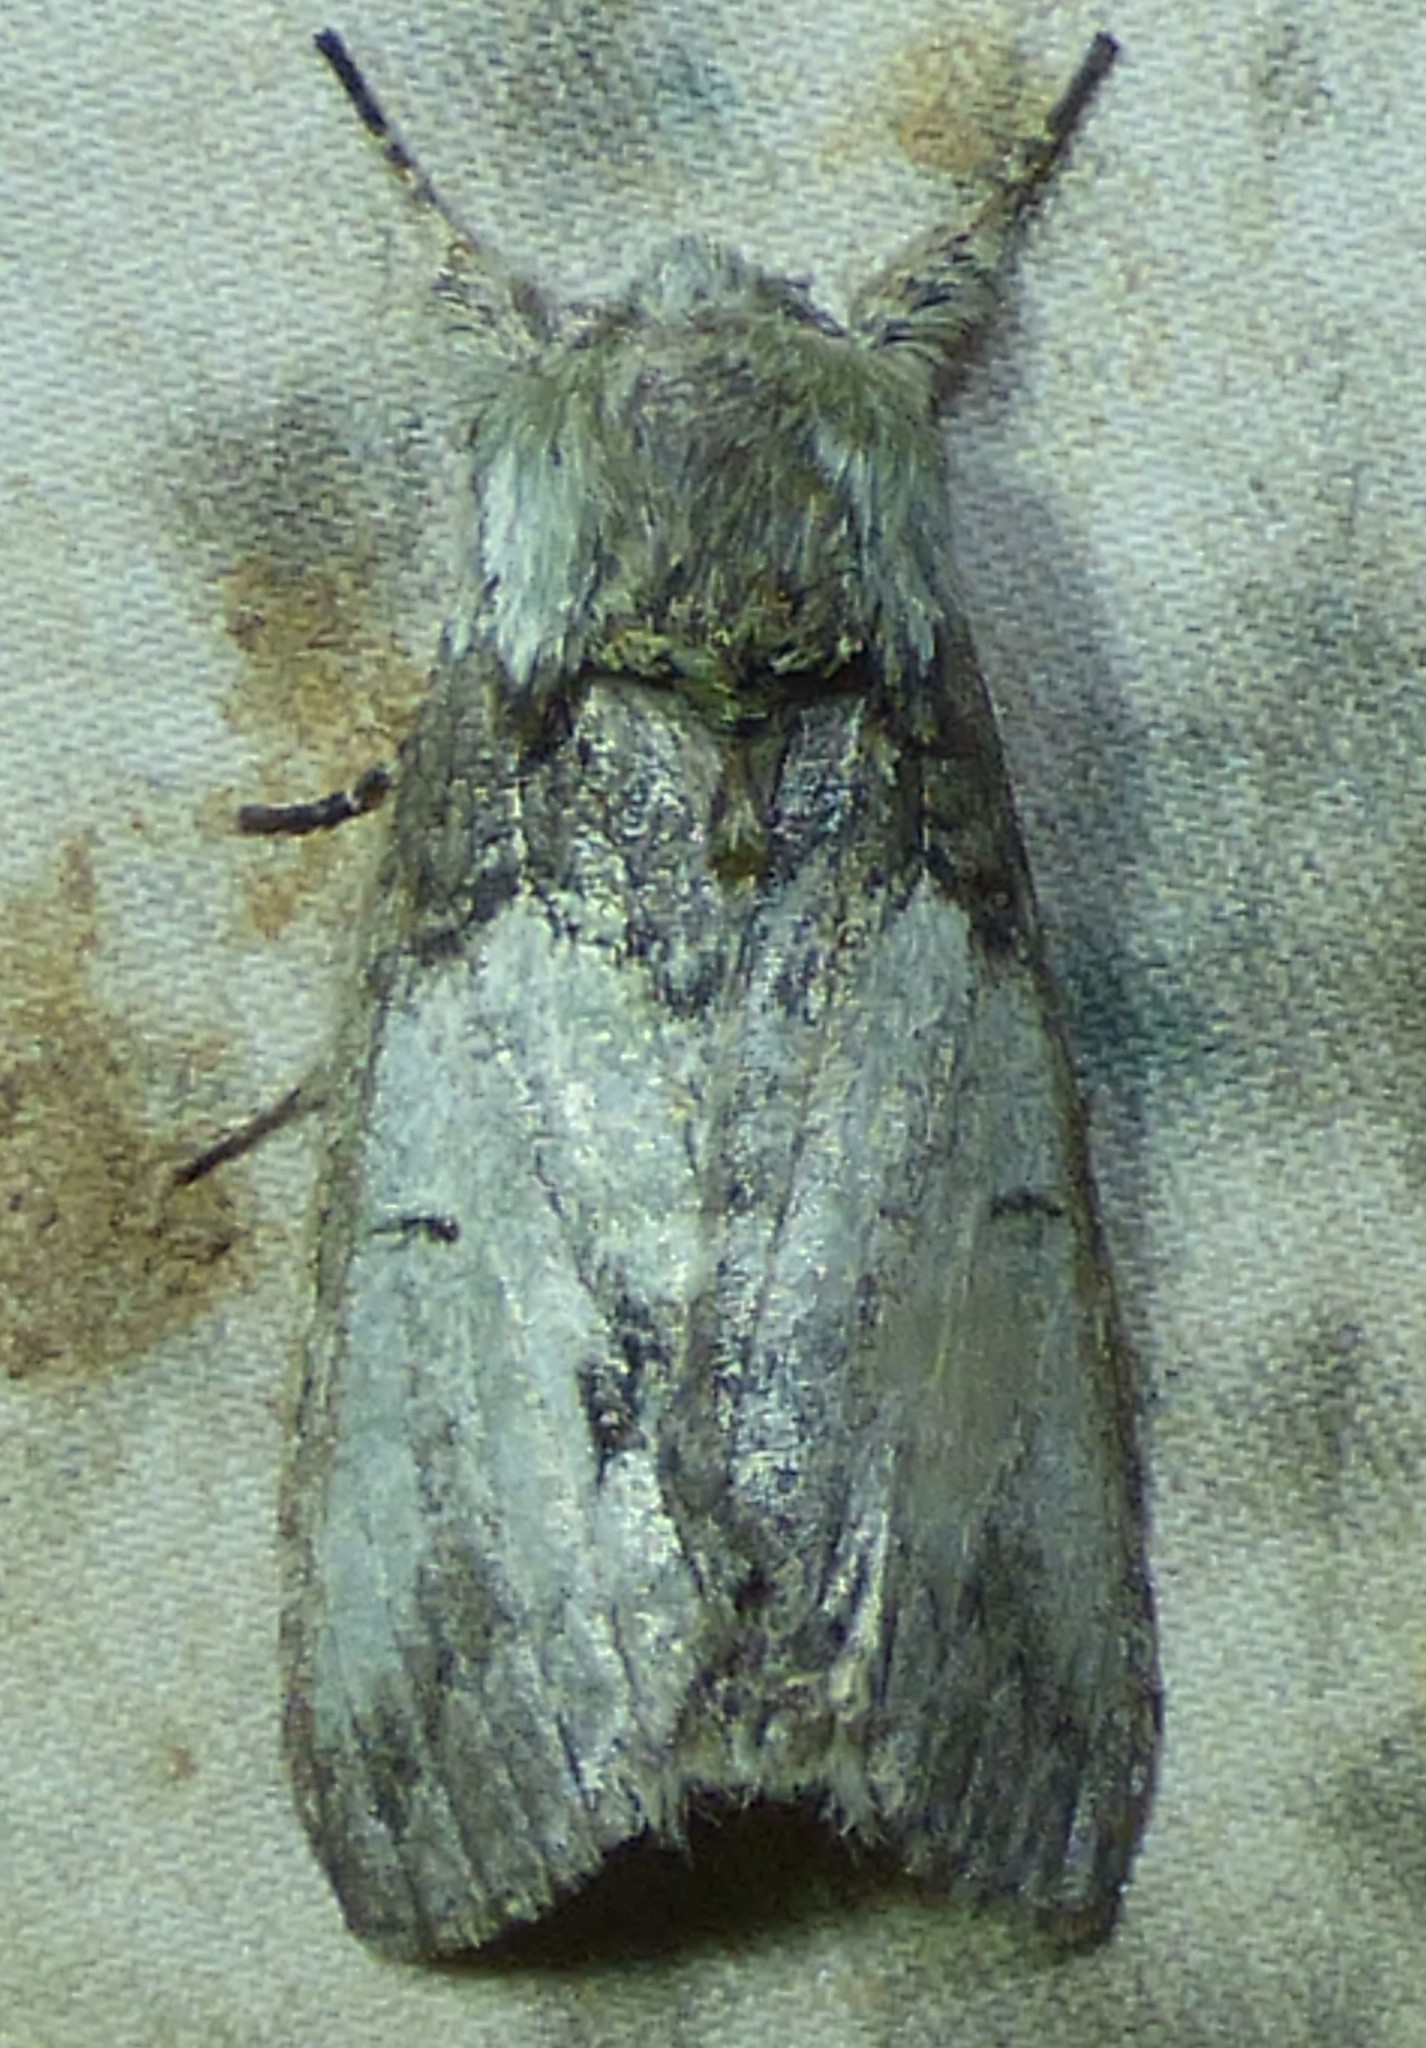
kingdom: Animalia
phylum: Arthropoda
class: Insecta
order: Lepidoptera
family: Notodontidae
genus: Macrurocampa
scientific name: Macrurocampa marthesia
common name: Mottled prominent
